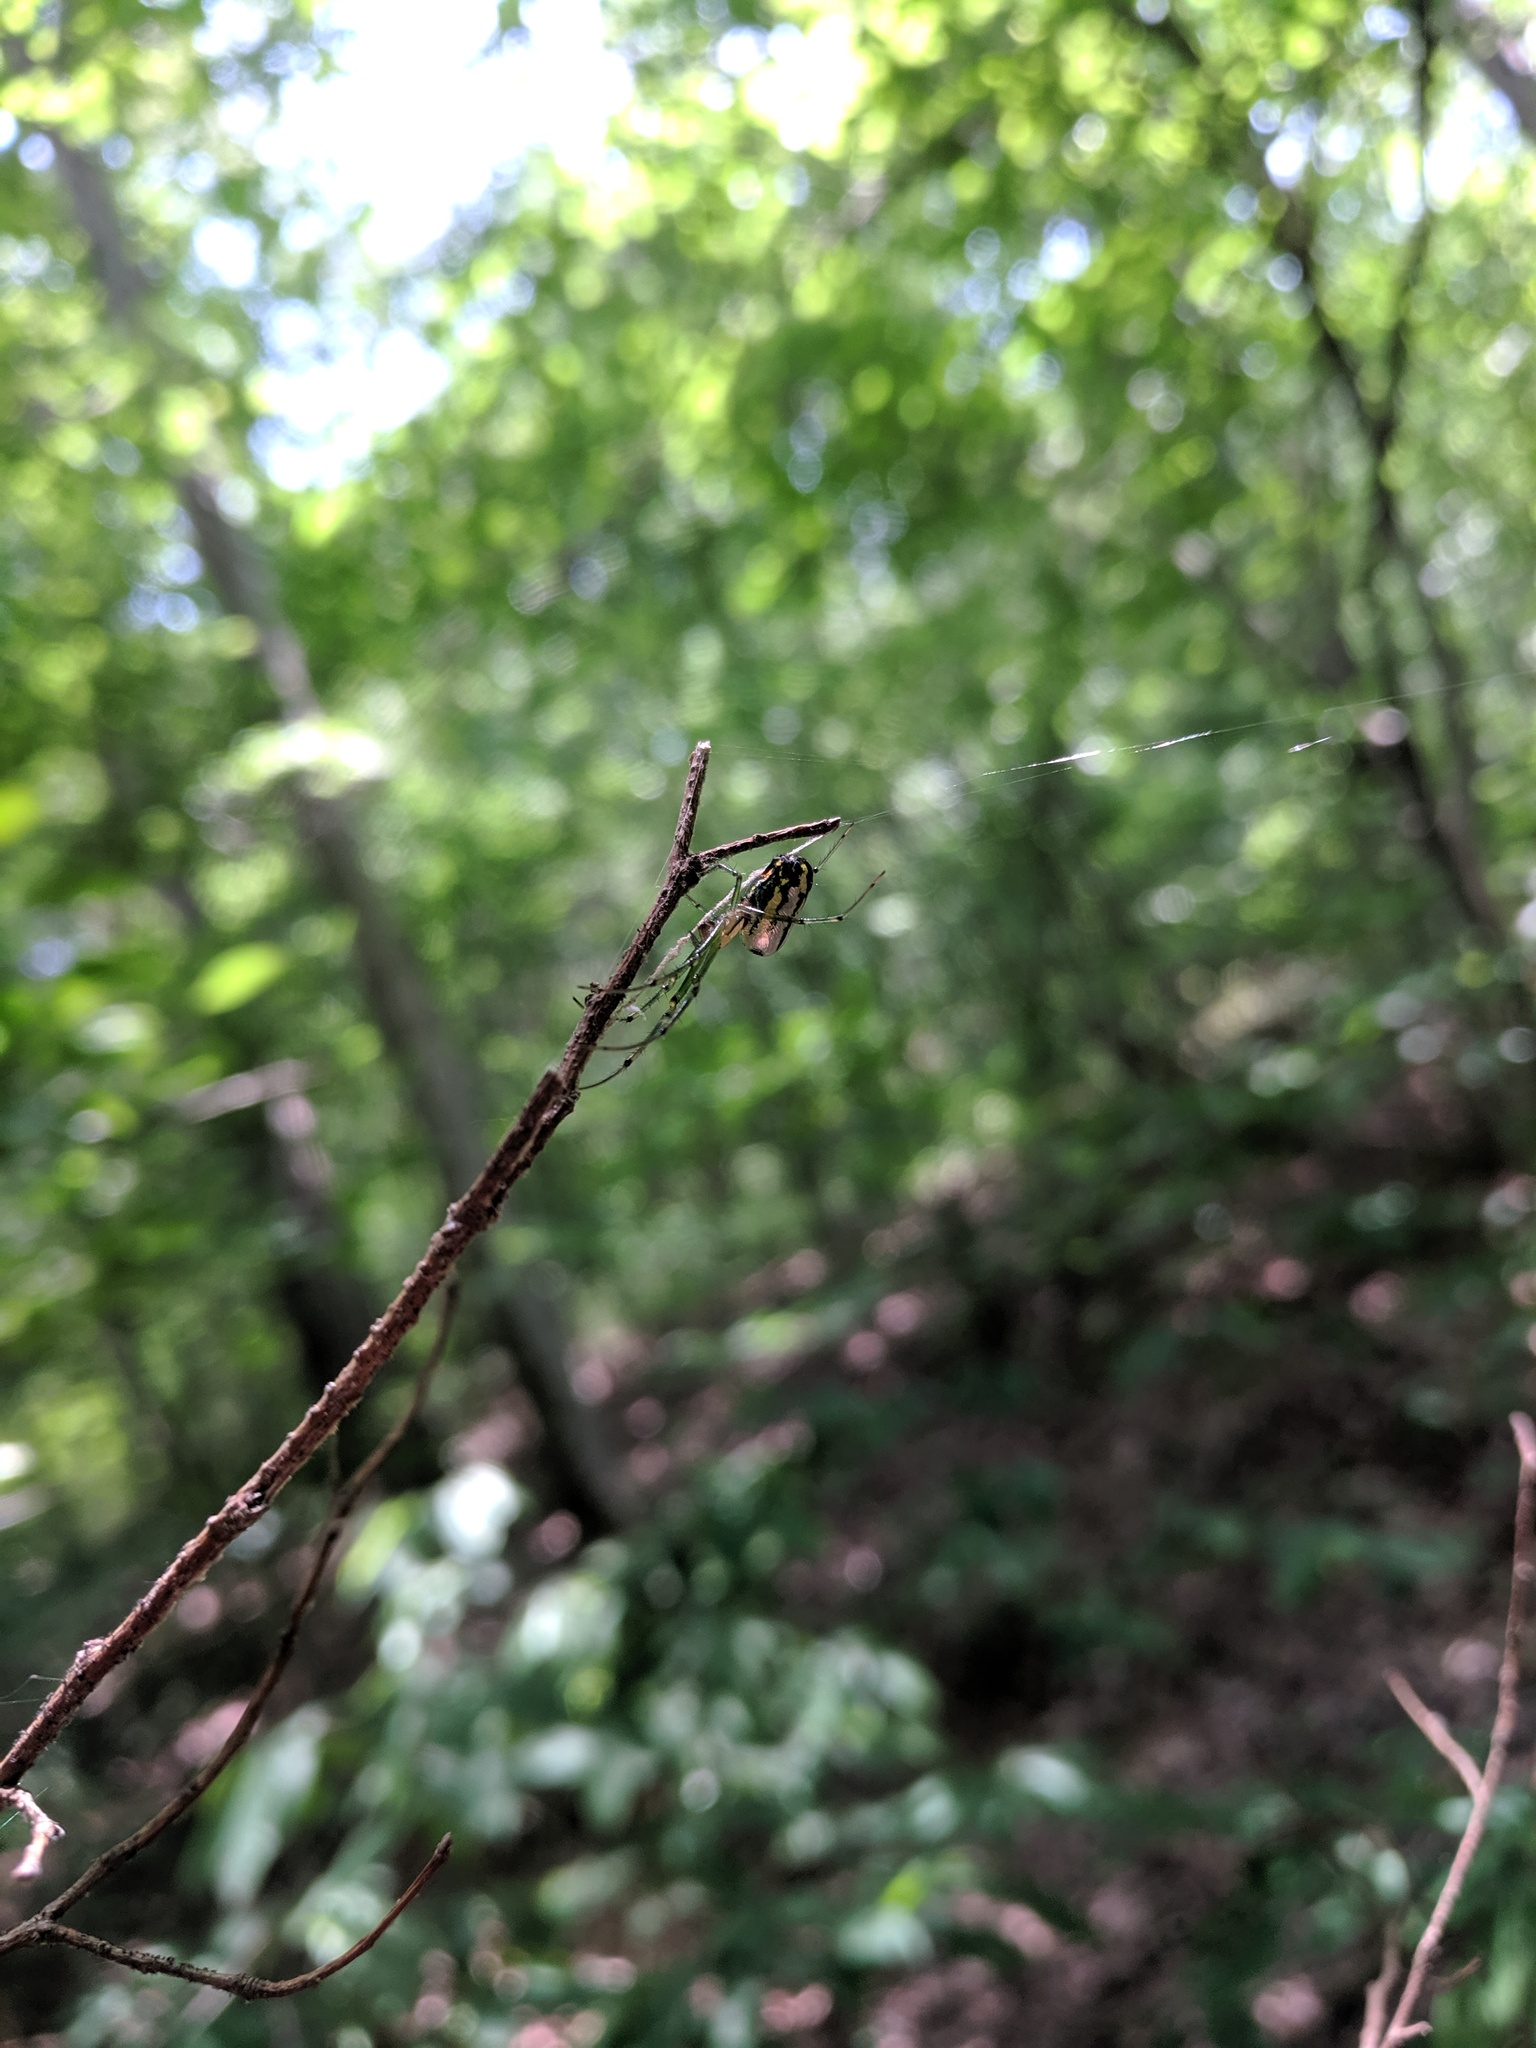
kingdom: Animalia
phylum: Arthropoda
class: Arachnida
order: Araneae
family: Tetragnathidae
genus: Leucauge
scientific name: Leucauge venusta
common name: Longjawed orb weavers
